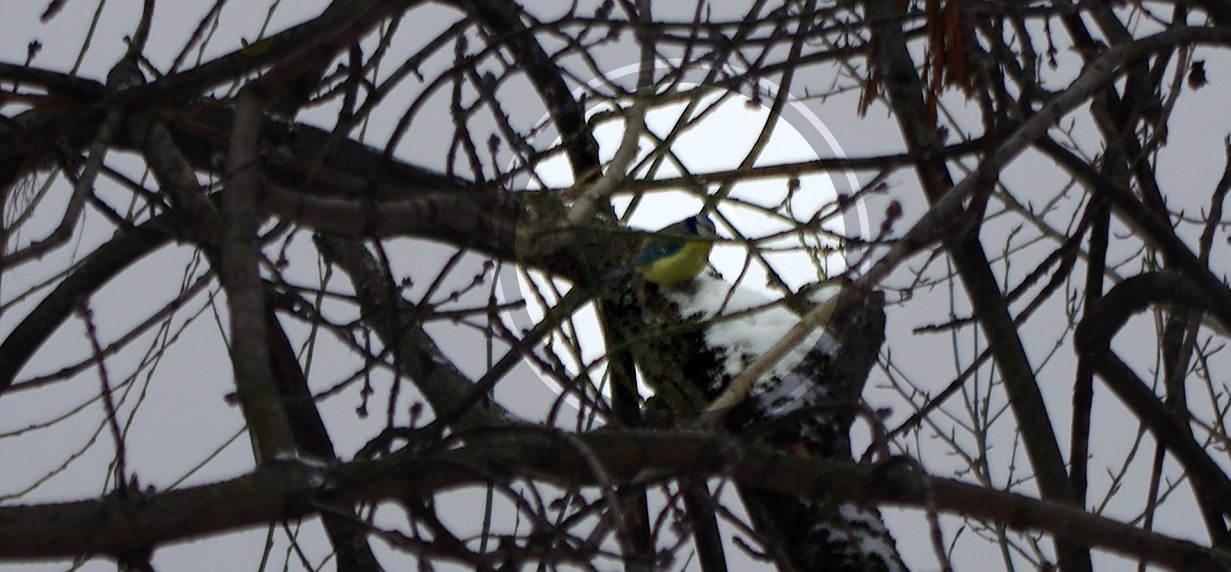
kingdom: Animalia
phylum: Chordata
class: Aves
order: Passeriformes
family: Paridae
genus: Cyanistes
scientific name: Cyanistes caeruleus
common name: Eurasian blue tit
